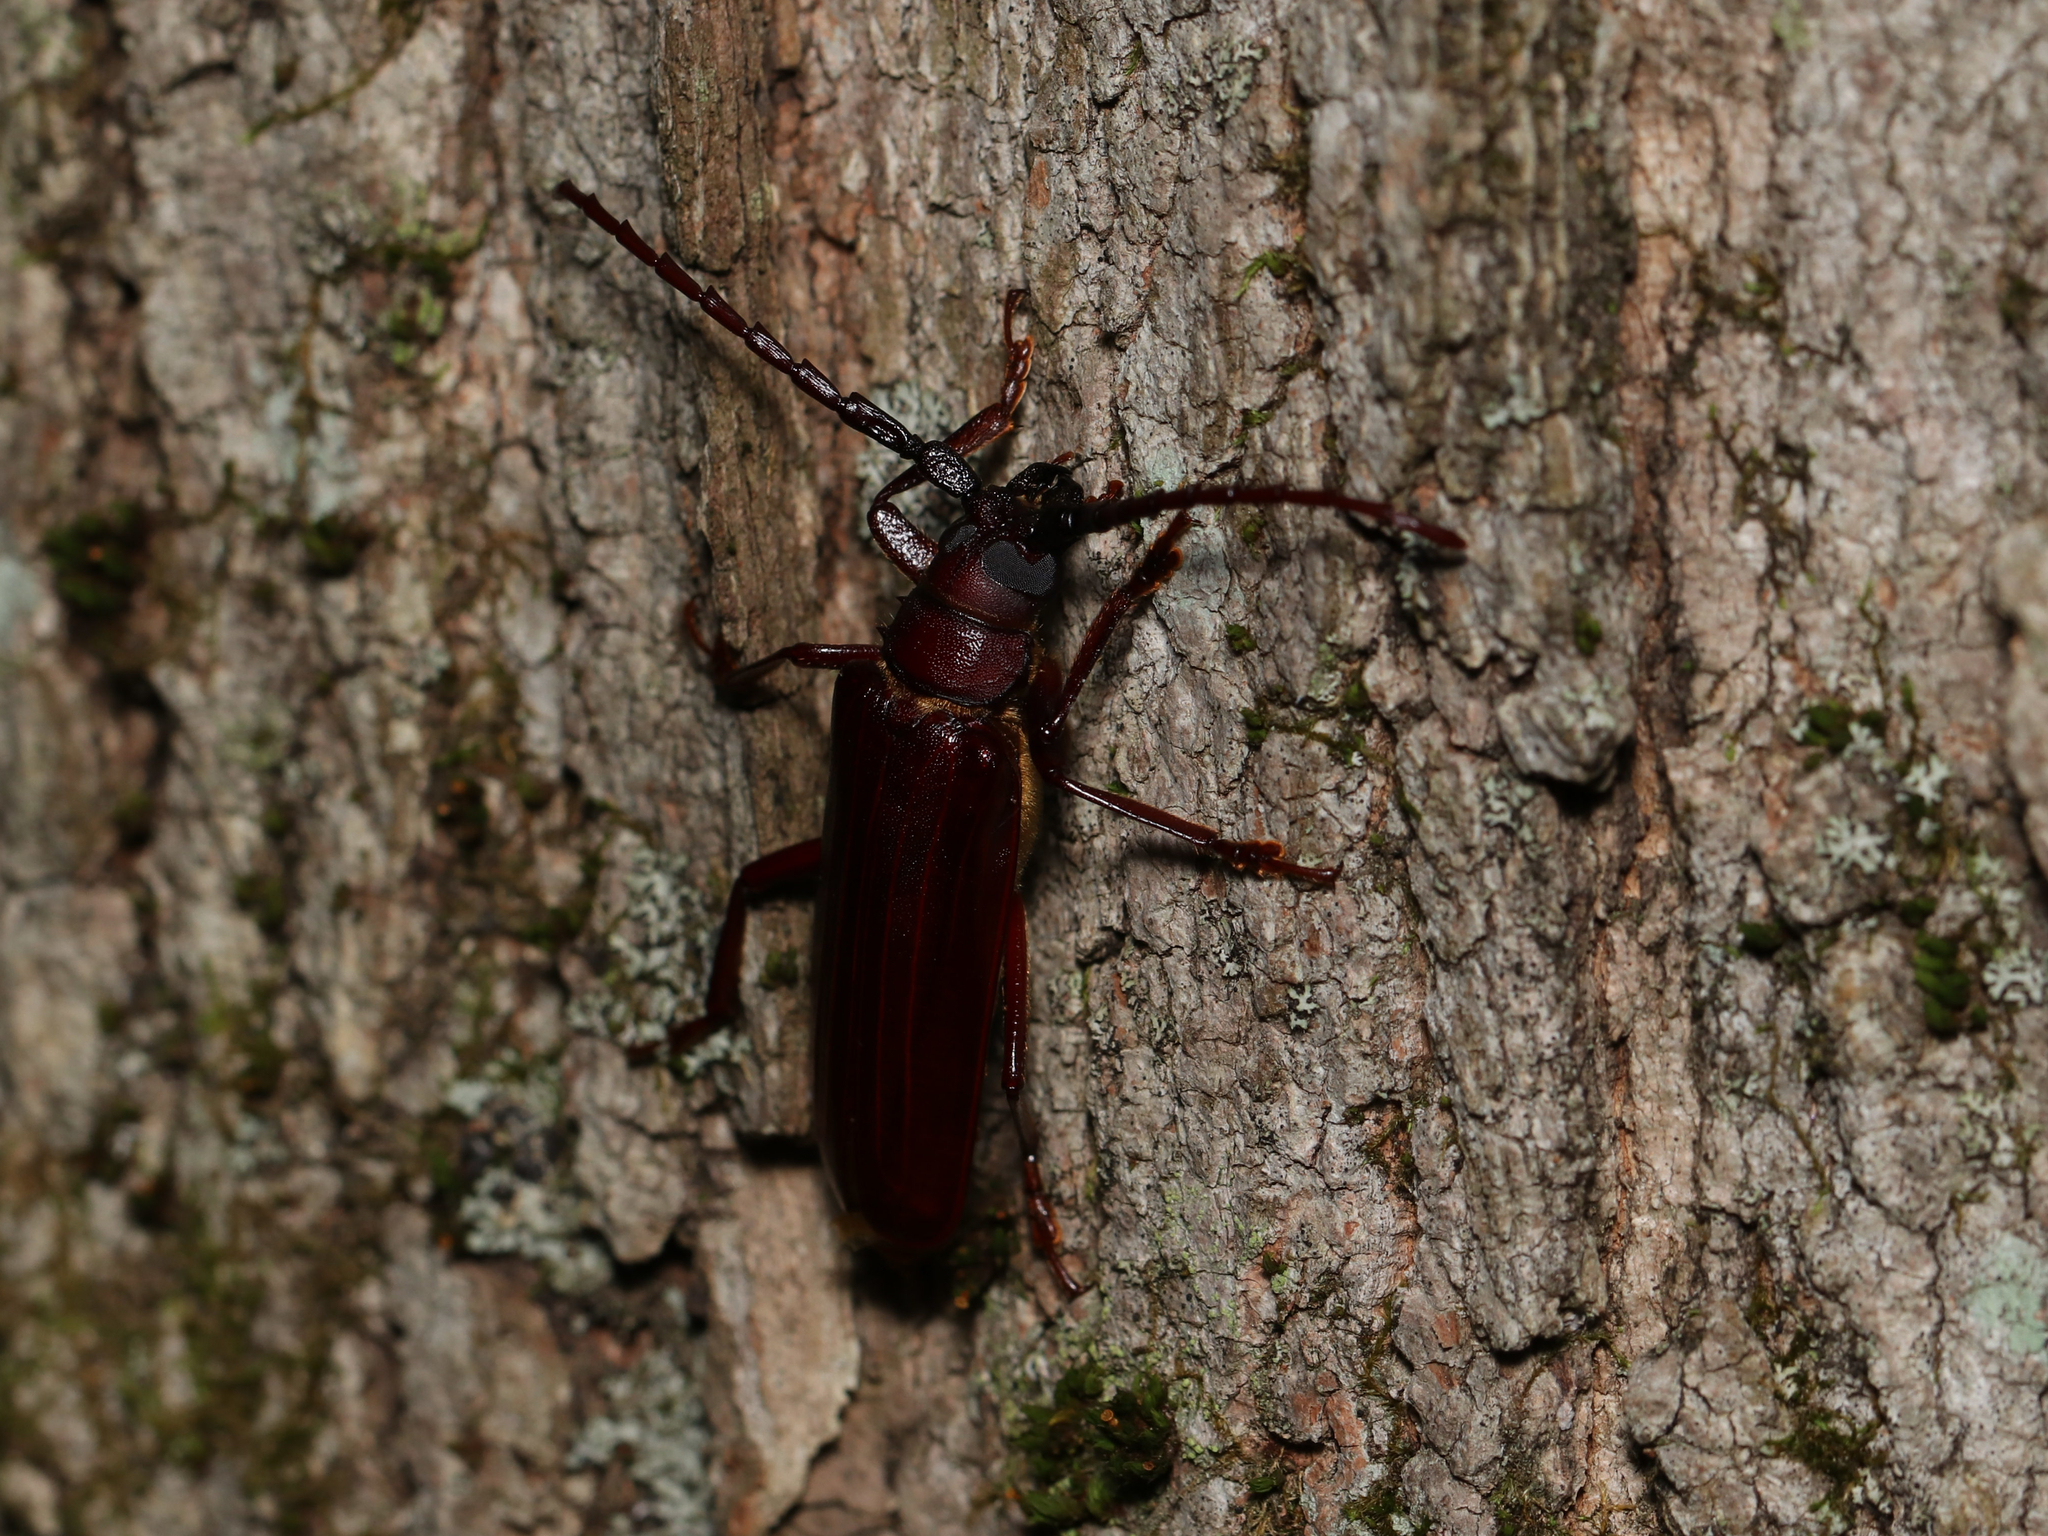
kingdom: Animalia
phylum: Arthropoda
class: Insecta
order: Coleoptera
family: Cerambycidae
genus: Orthosoma
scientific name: Orthosoma brunneum
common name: Brown prionid beetle
